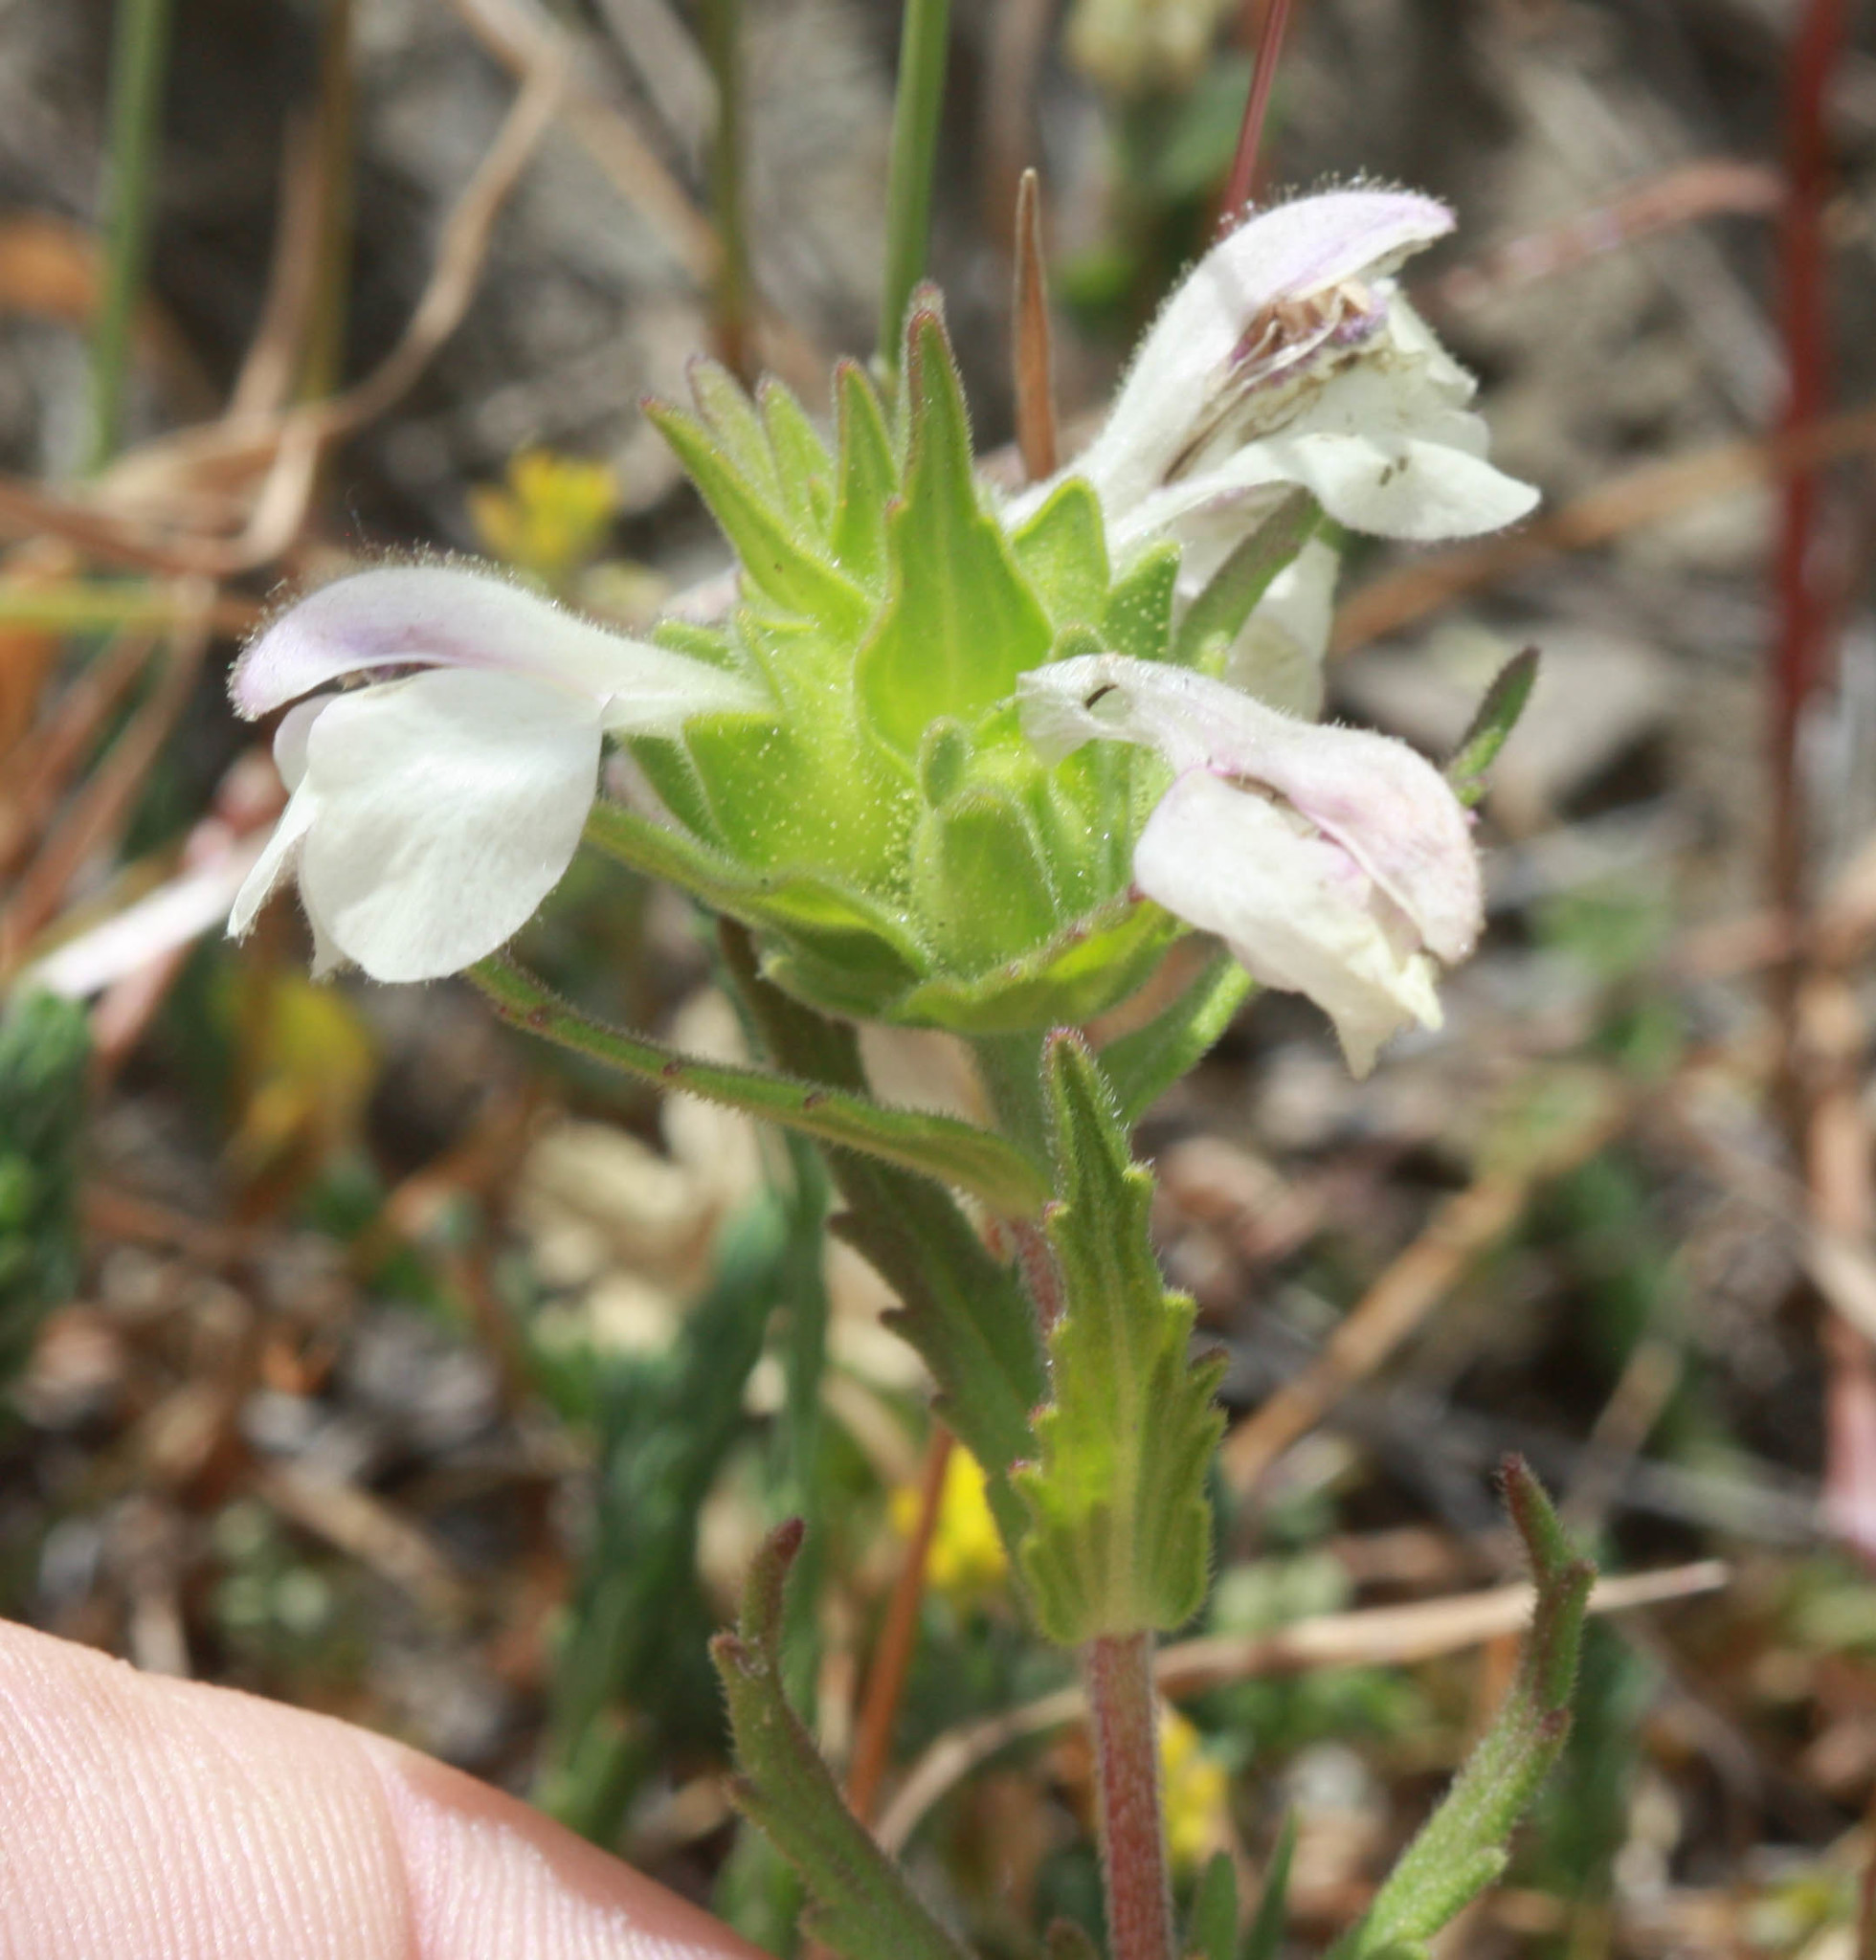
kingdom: Plantae
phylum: Tracheophyta
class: Magnoliopsida
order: Lamiales
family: Orobanchaceae
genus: Bellardia
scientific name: Bellardia trixago
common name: Mediterranean lineseed
